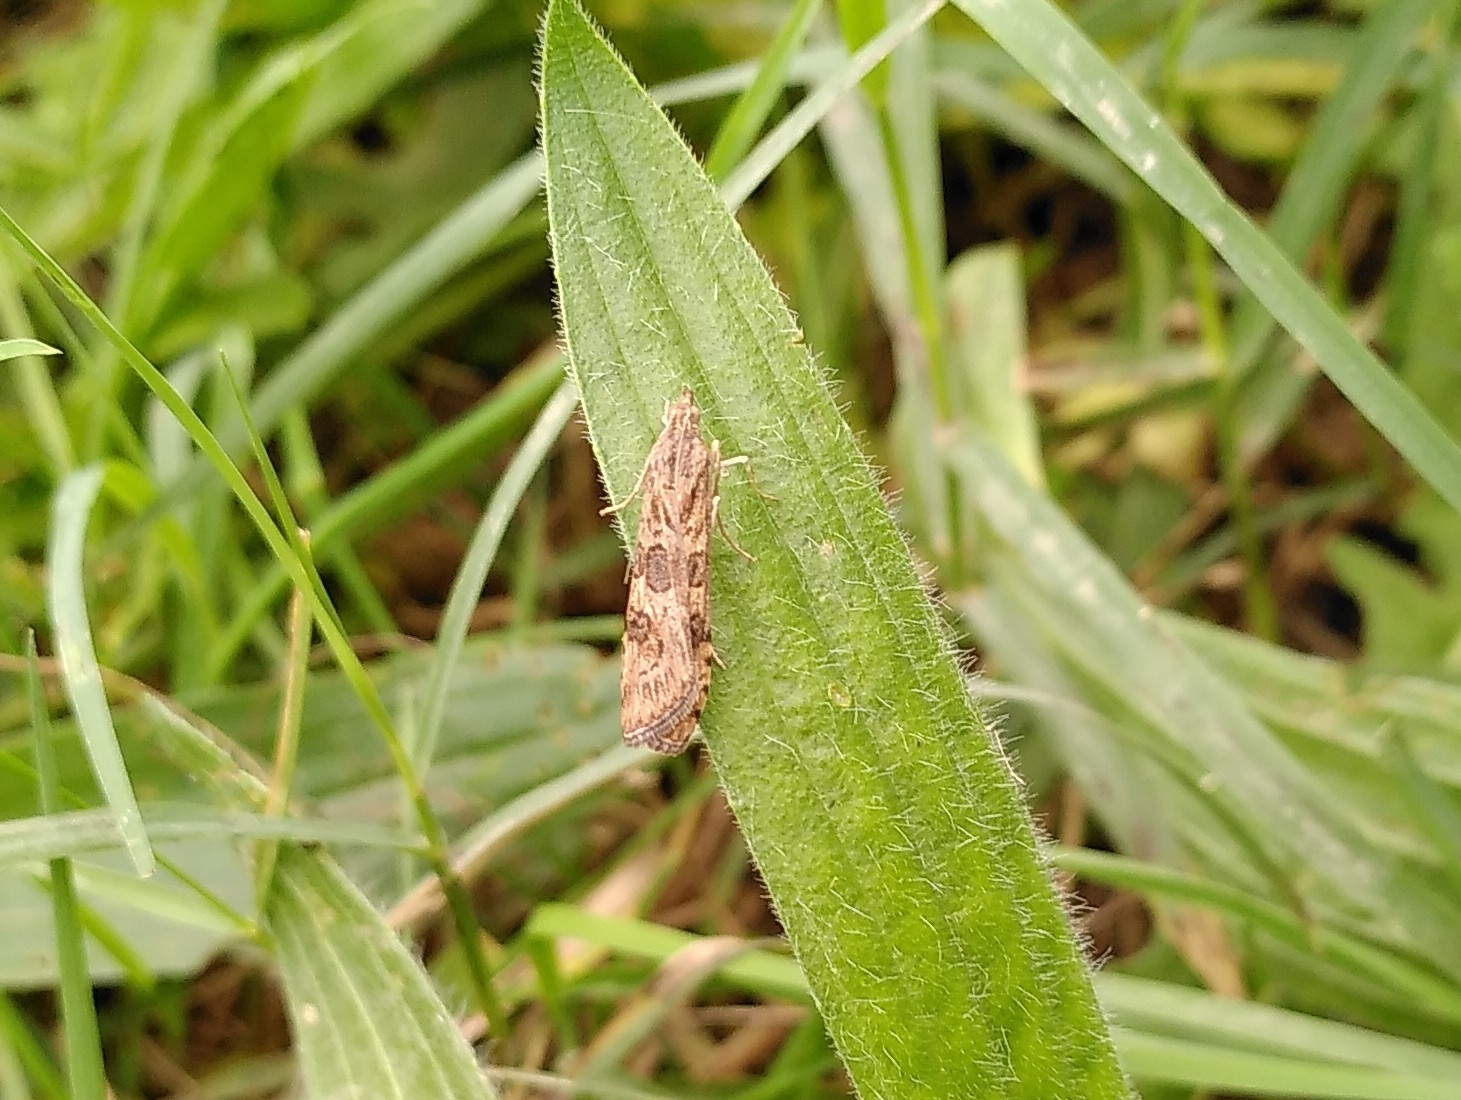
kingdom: Animalia
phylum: Arthropoda
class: Insecta
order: Lepidoptera
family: Crambidae
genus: Nomophila
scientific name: Nomophila noctuella
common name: Rush veneer
